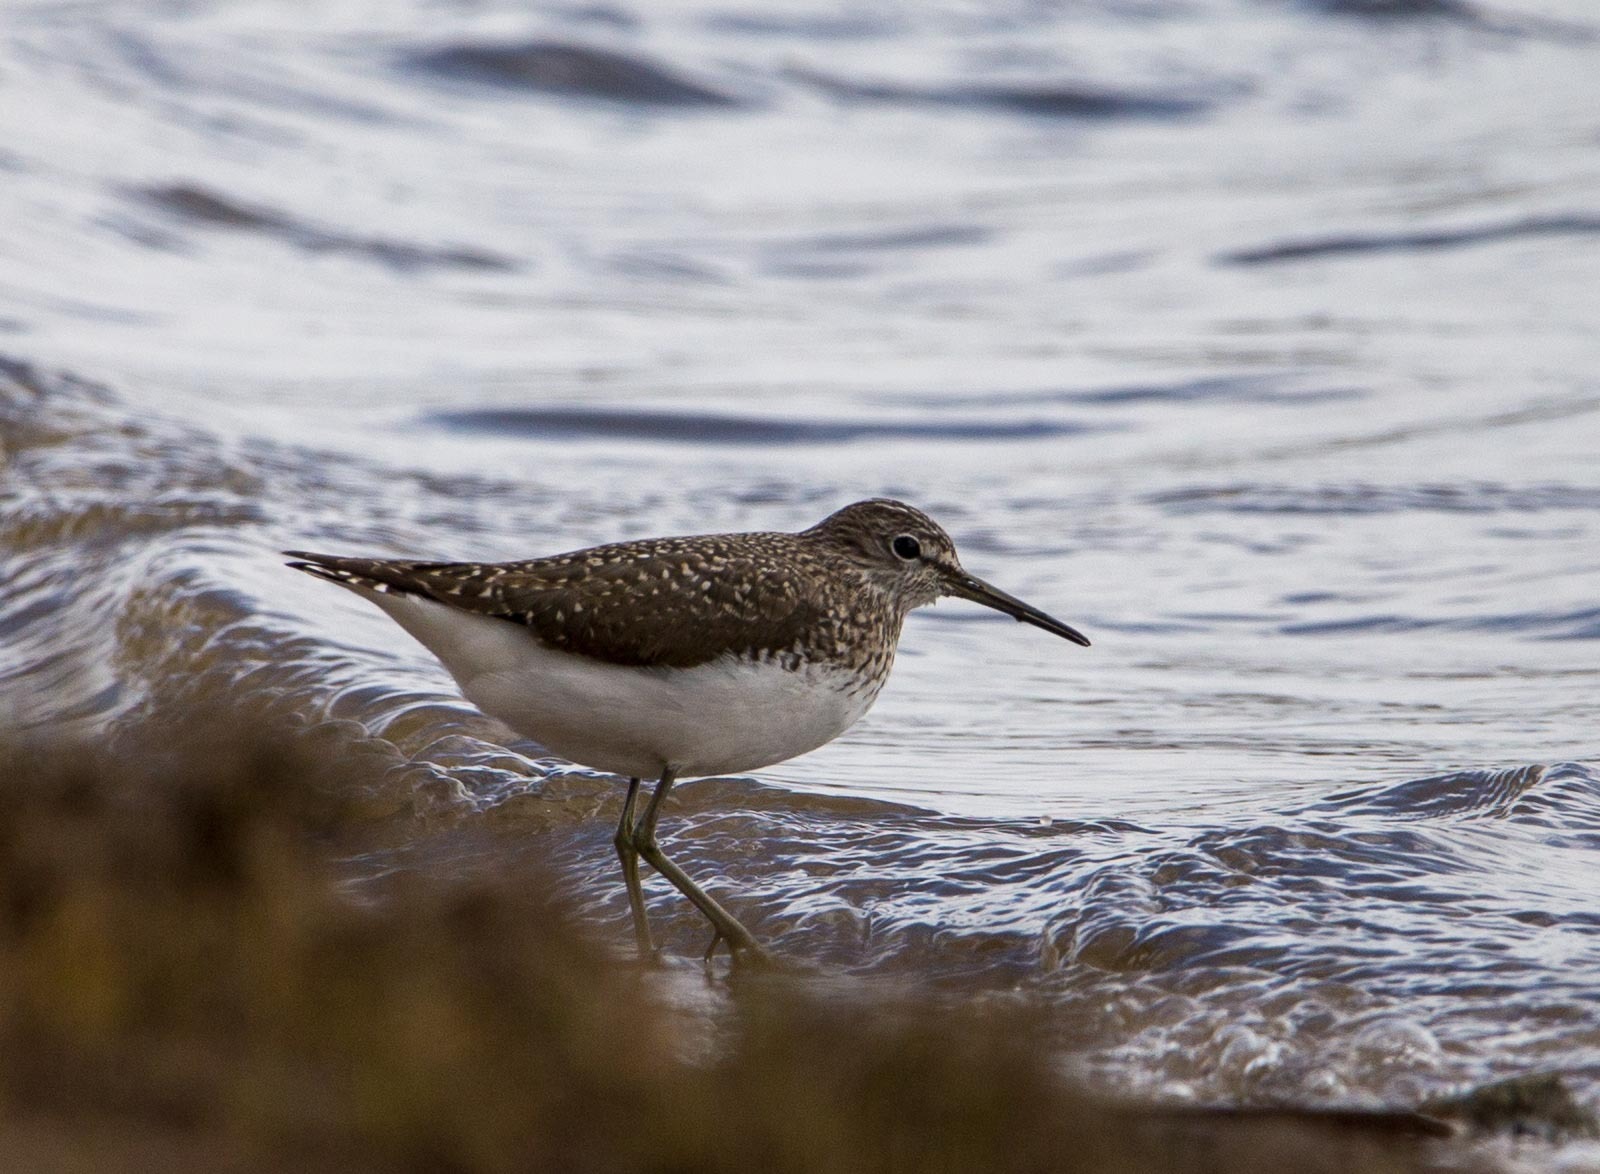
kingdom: Animalia
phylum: Chordata
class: Aves
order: Charadriiformes
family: Scolopacidae
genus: Tringa
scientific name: Tringa ochropus
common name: Green sandpiper
